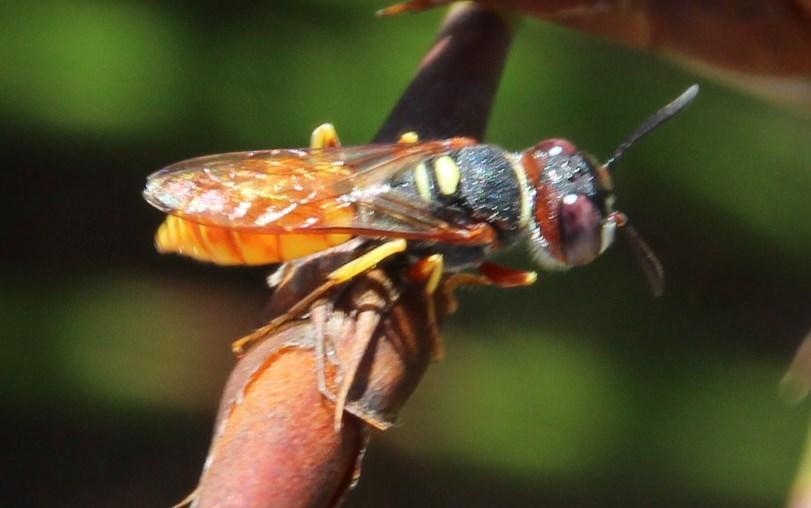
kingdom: Animalia
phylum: Arthropoda
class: Insecta
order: Hymenoptera
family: Crabronidae
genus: Philanthus
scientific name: Philanthus triangulum
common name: Bee wolf
